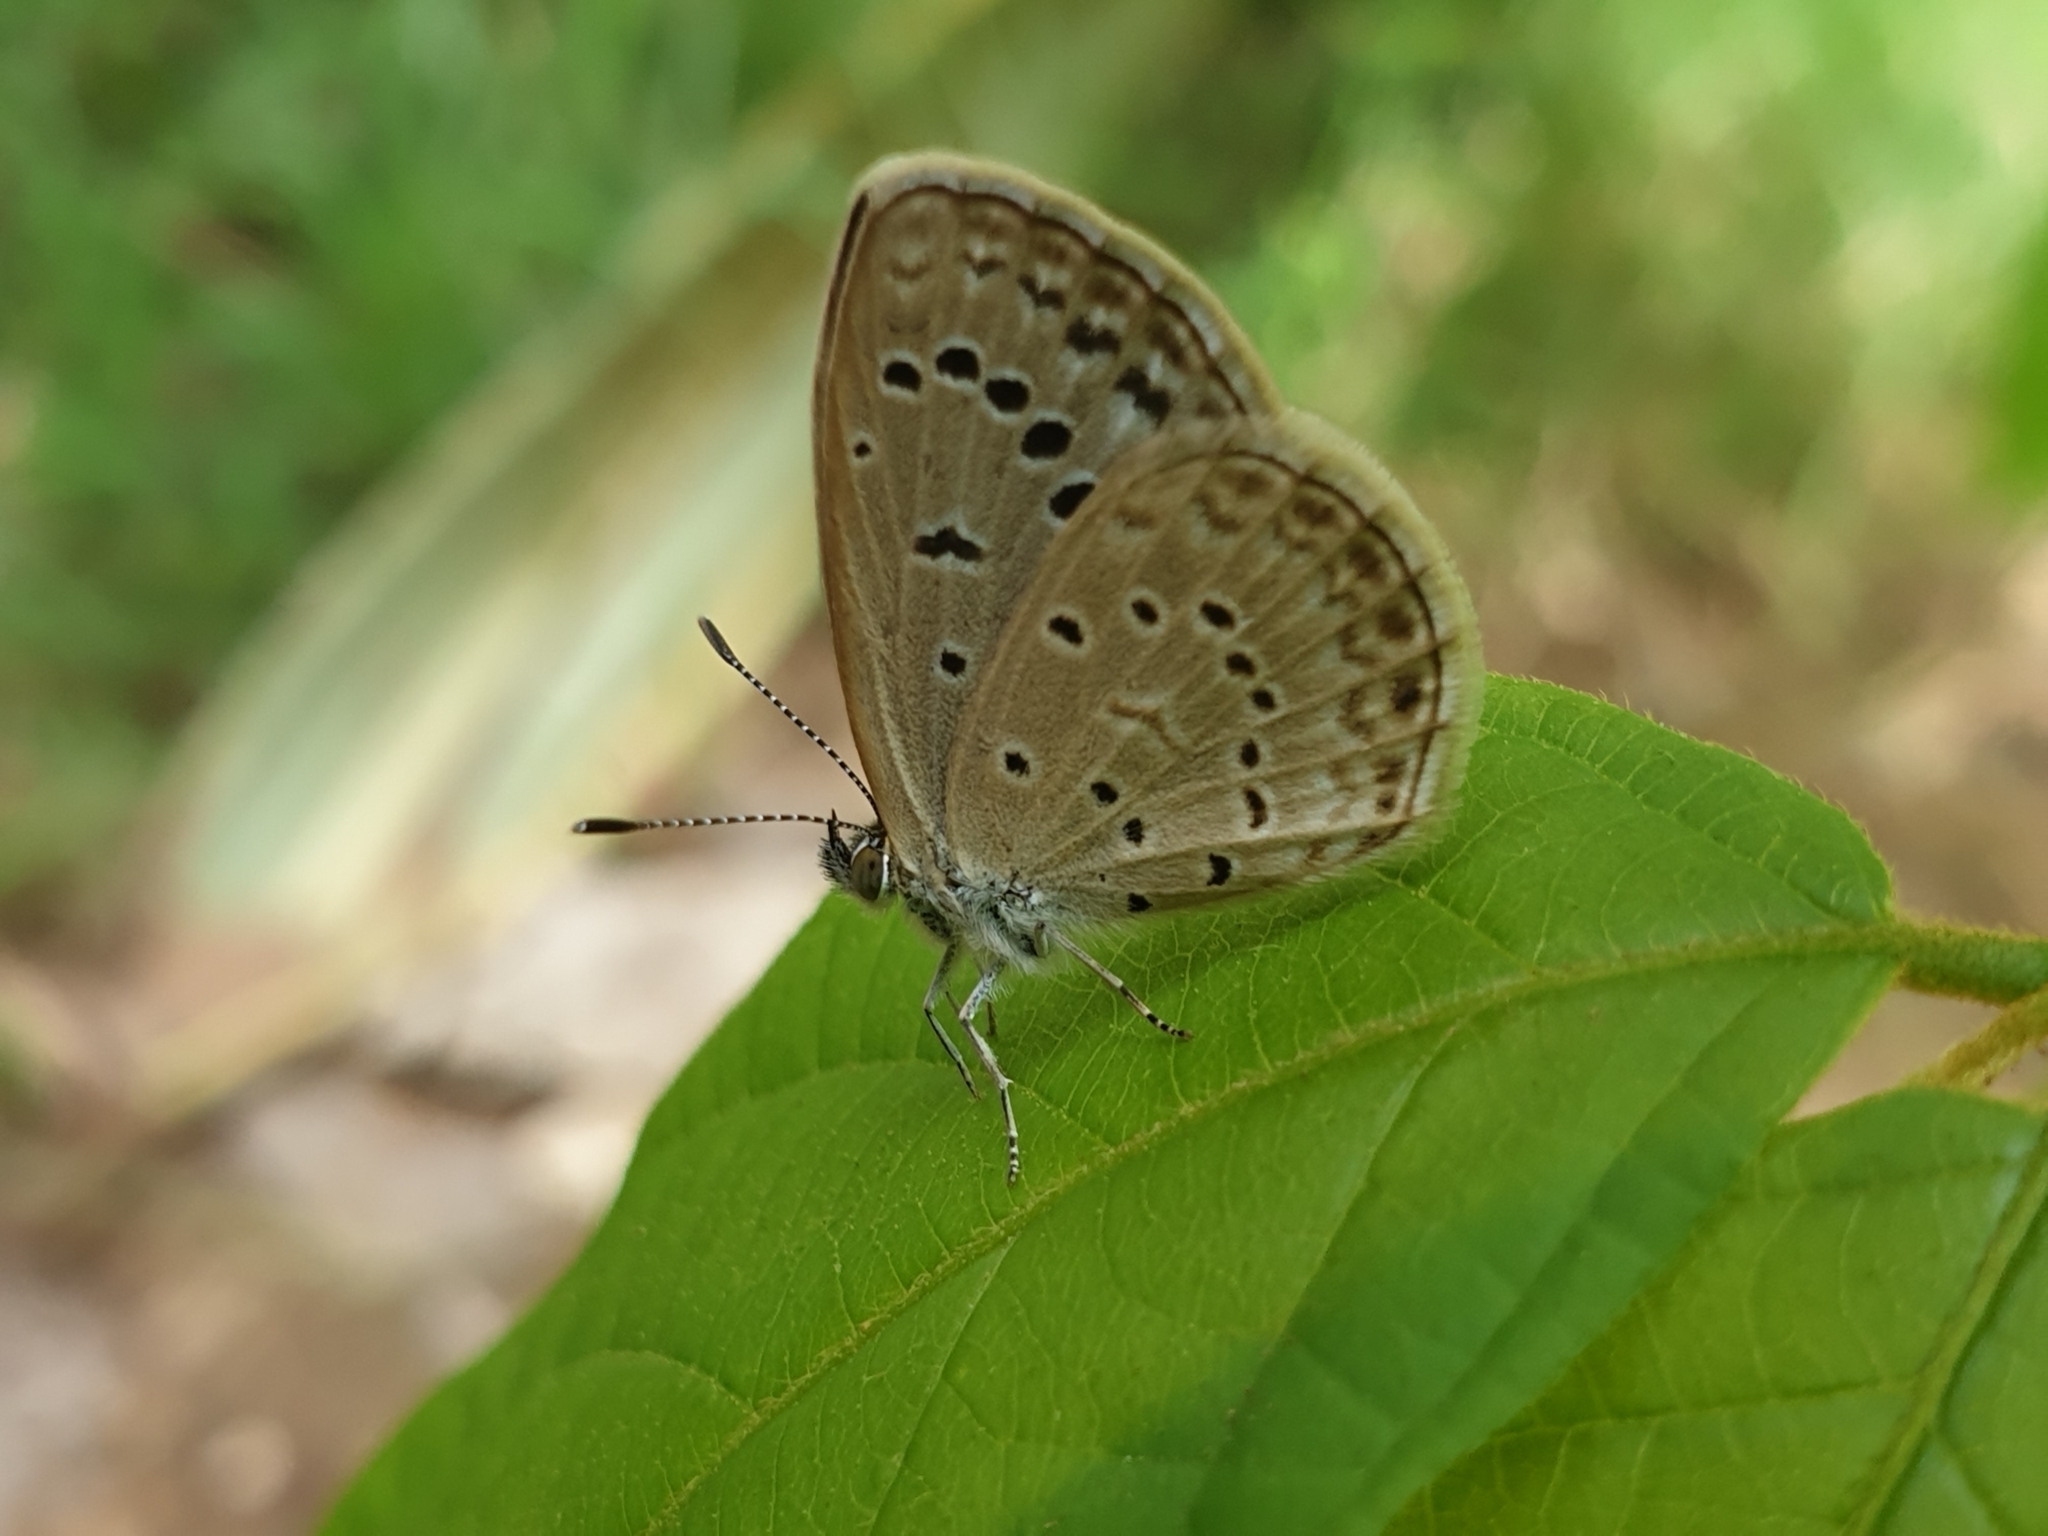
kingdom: Animalia
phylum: Arthropoda
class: Insecta
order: Lepidoptera
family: Lycaenidae
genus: Pseudozizeeria
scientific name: Pseudozizeeria maha
